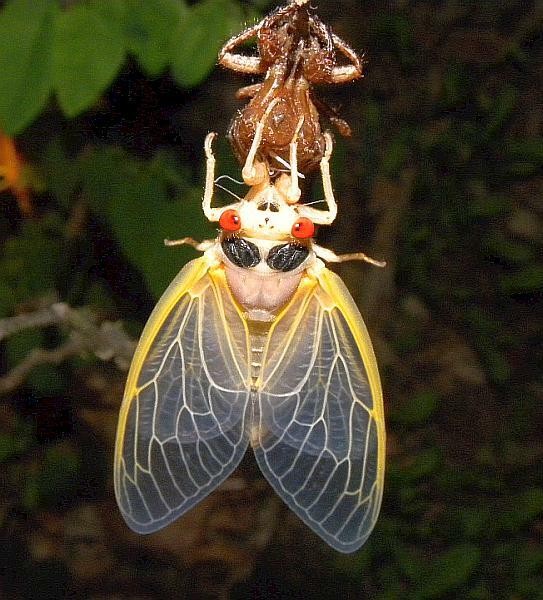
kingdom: Animalia
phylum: Arthropoda
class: Insecta
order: Hemiptera
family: Cicadidae
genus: Magicicada
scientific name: Magicicada
